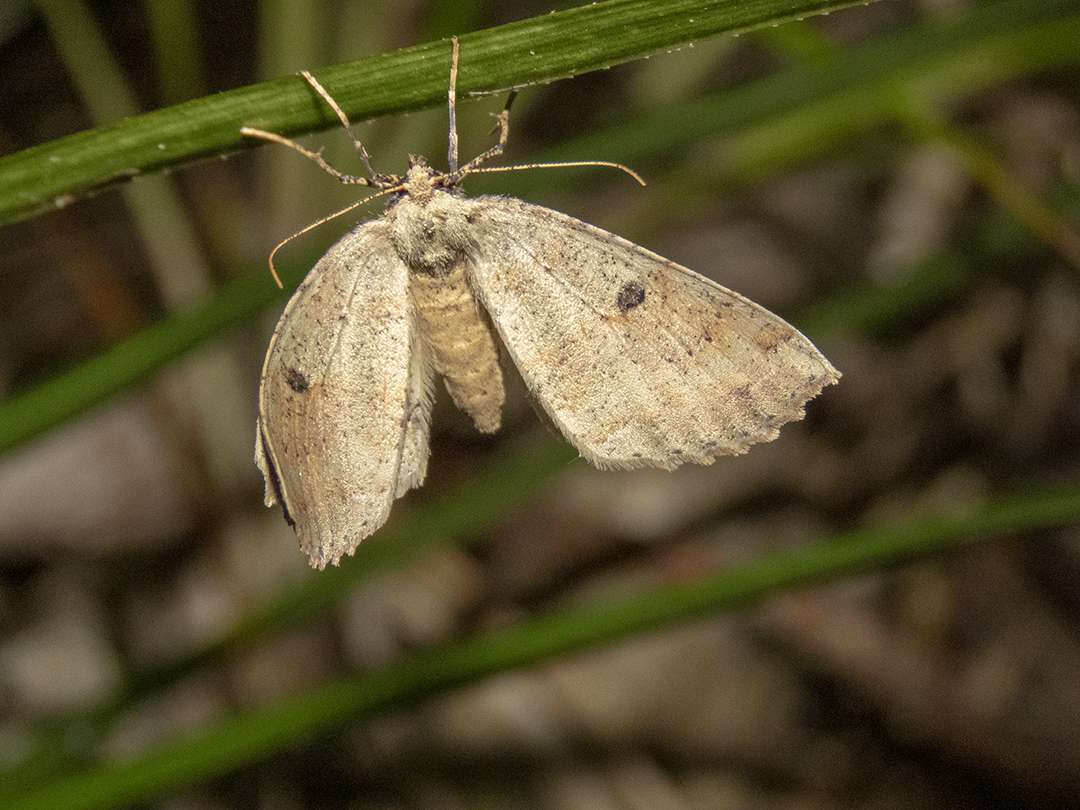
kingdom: Animalia
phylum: Arthropoda
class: Insecta
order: Lepidoptera
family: Geometridae
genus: Cleora
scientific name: Cleora scriptaria
